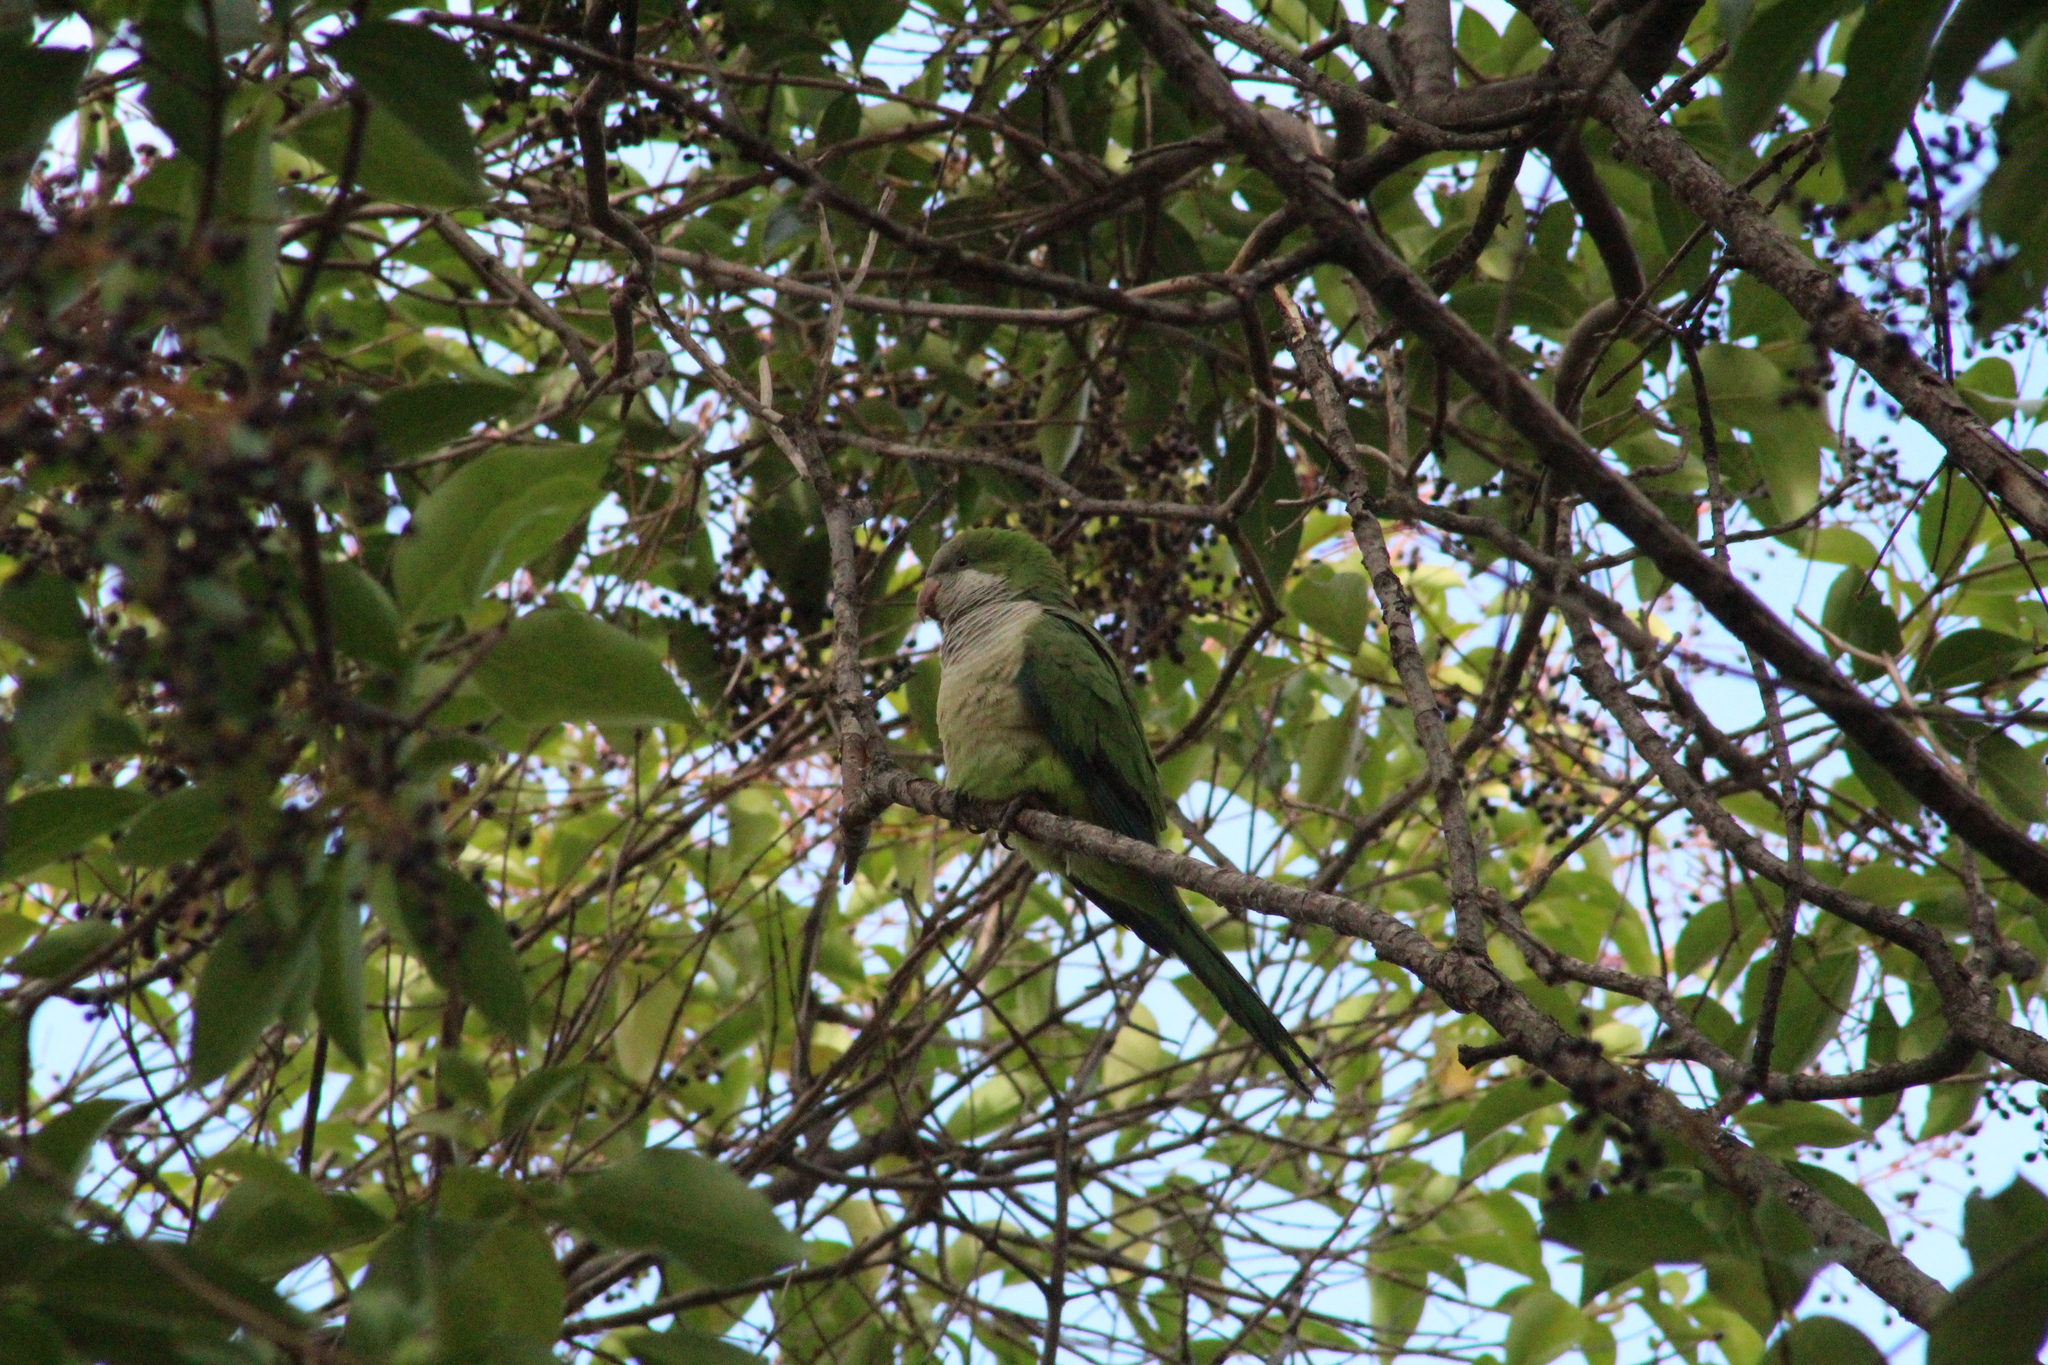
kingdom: Animalia
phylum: Chordata
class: Aves
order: Psittaciformes
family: Psittacidae
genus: Myiopsitta
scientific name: Myiopsitta monachus
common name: Monk parakeet
